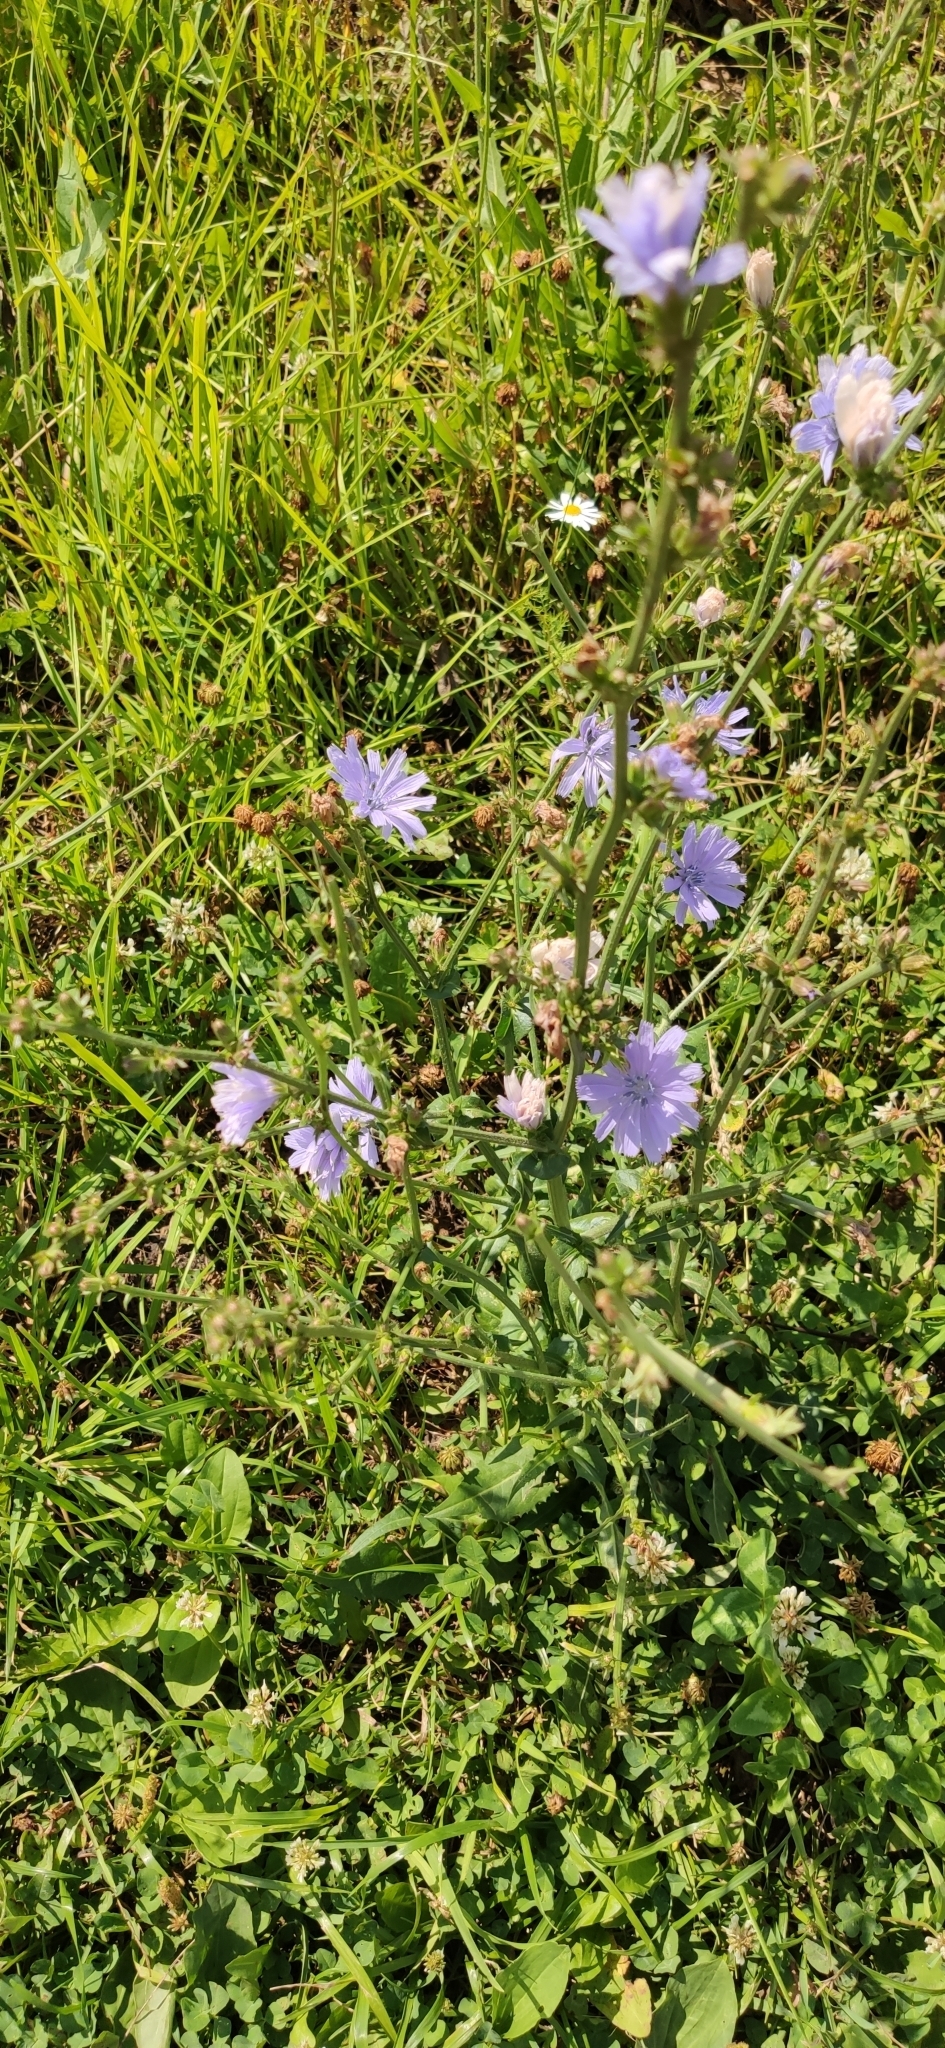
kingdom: Plantae
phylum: Tracheophyta
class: Magnoliopsida
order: Asterales
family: Asteraceae
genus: Cichorium
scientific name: Cichorium intybus
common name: Chicory
